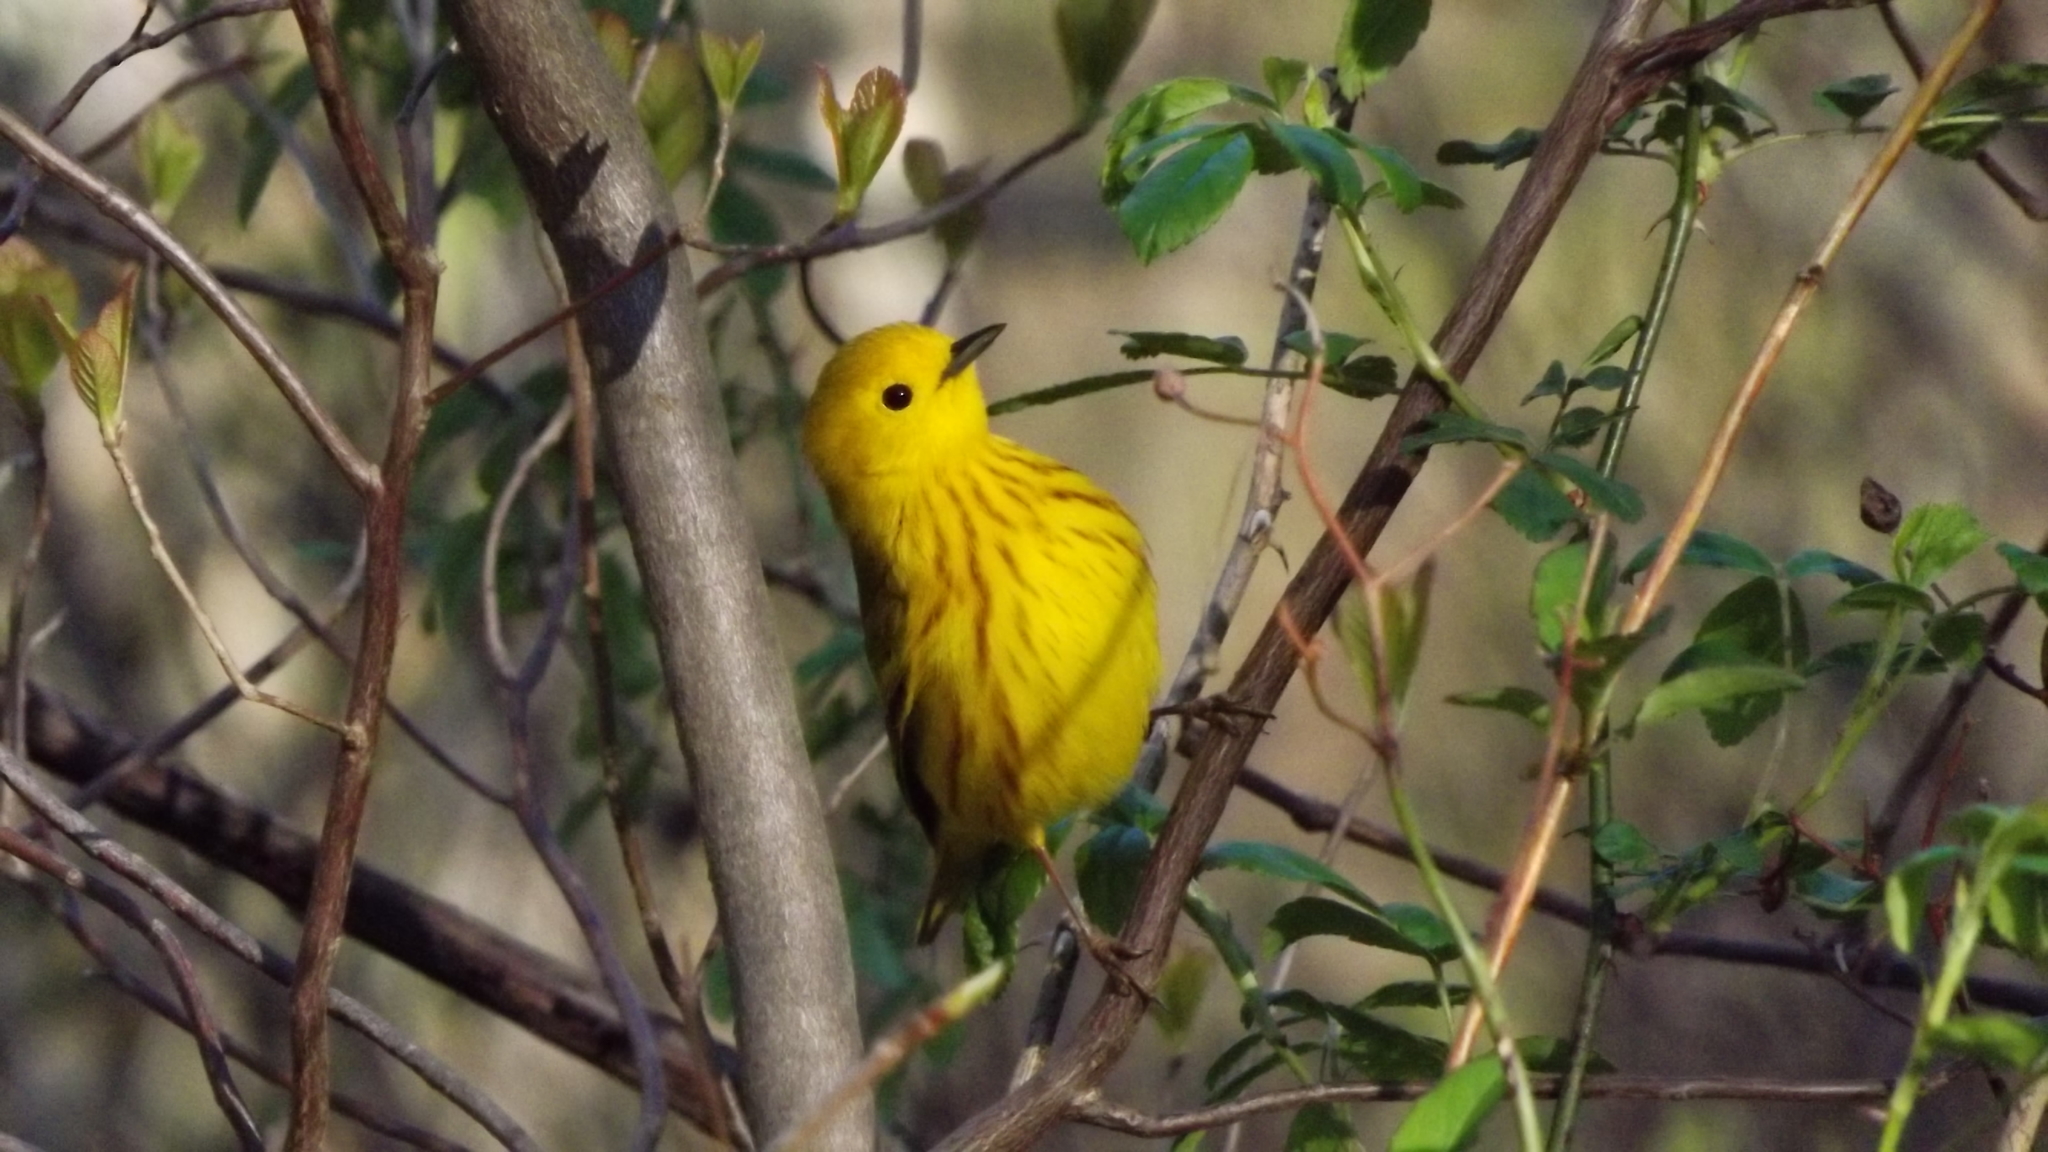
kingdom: Animalia
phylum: Chordata
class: Aves
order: Passeriformes
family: Parulidae
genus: Setophaga
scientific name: Setophaga petechia
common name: Yellow warbler
